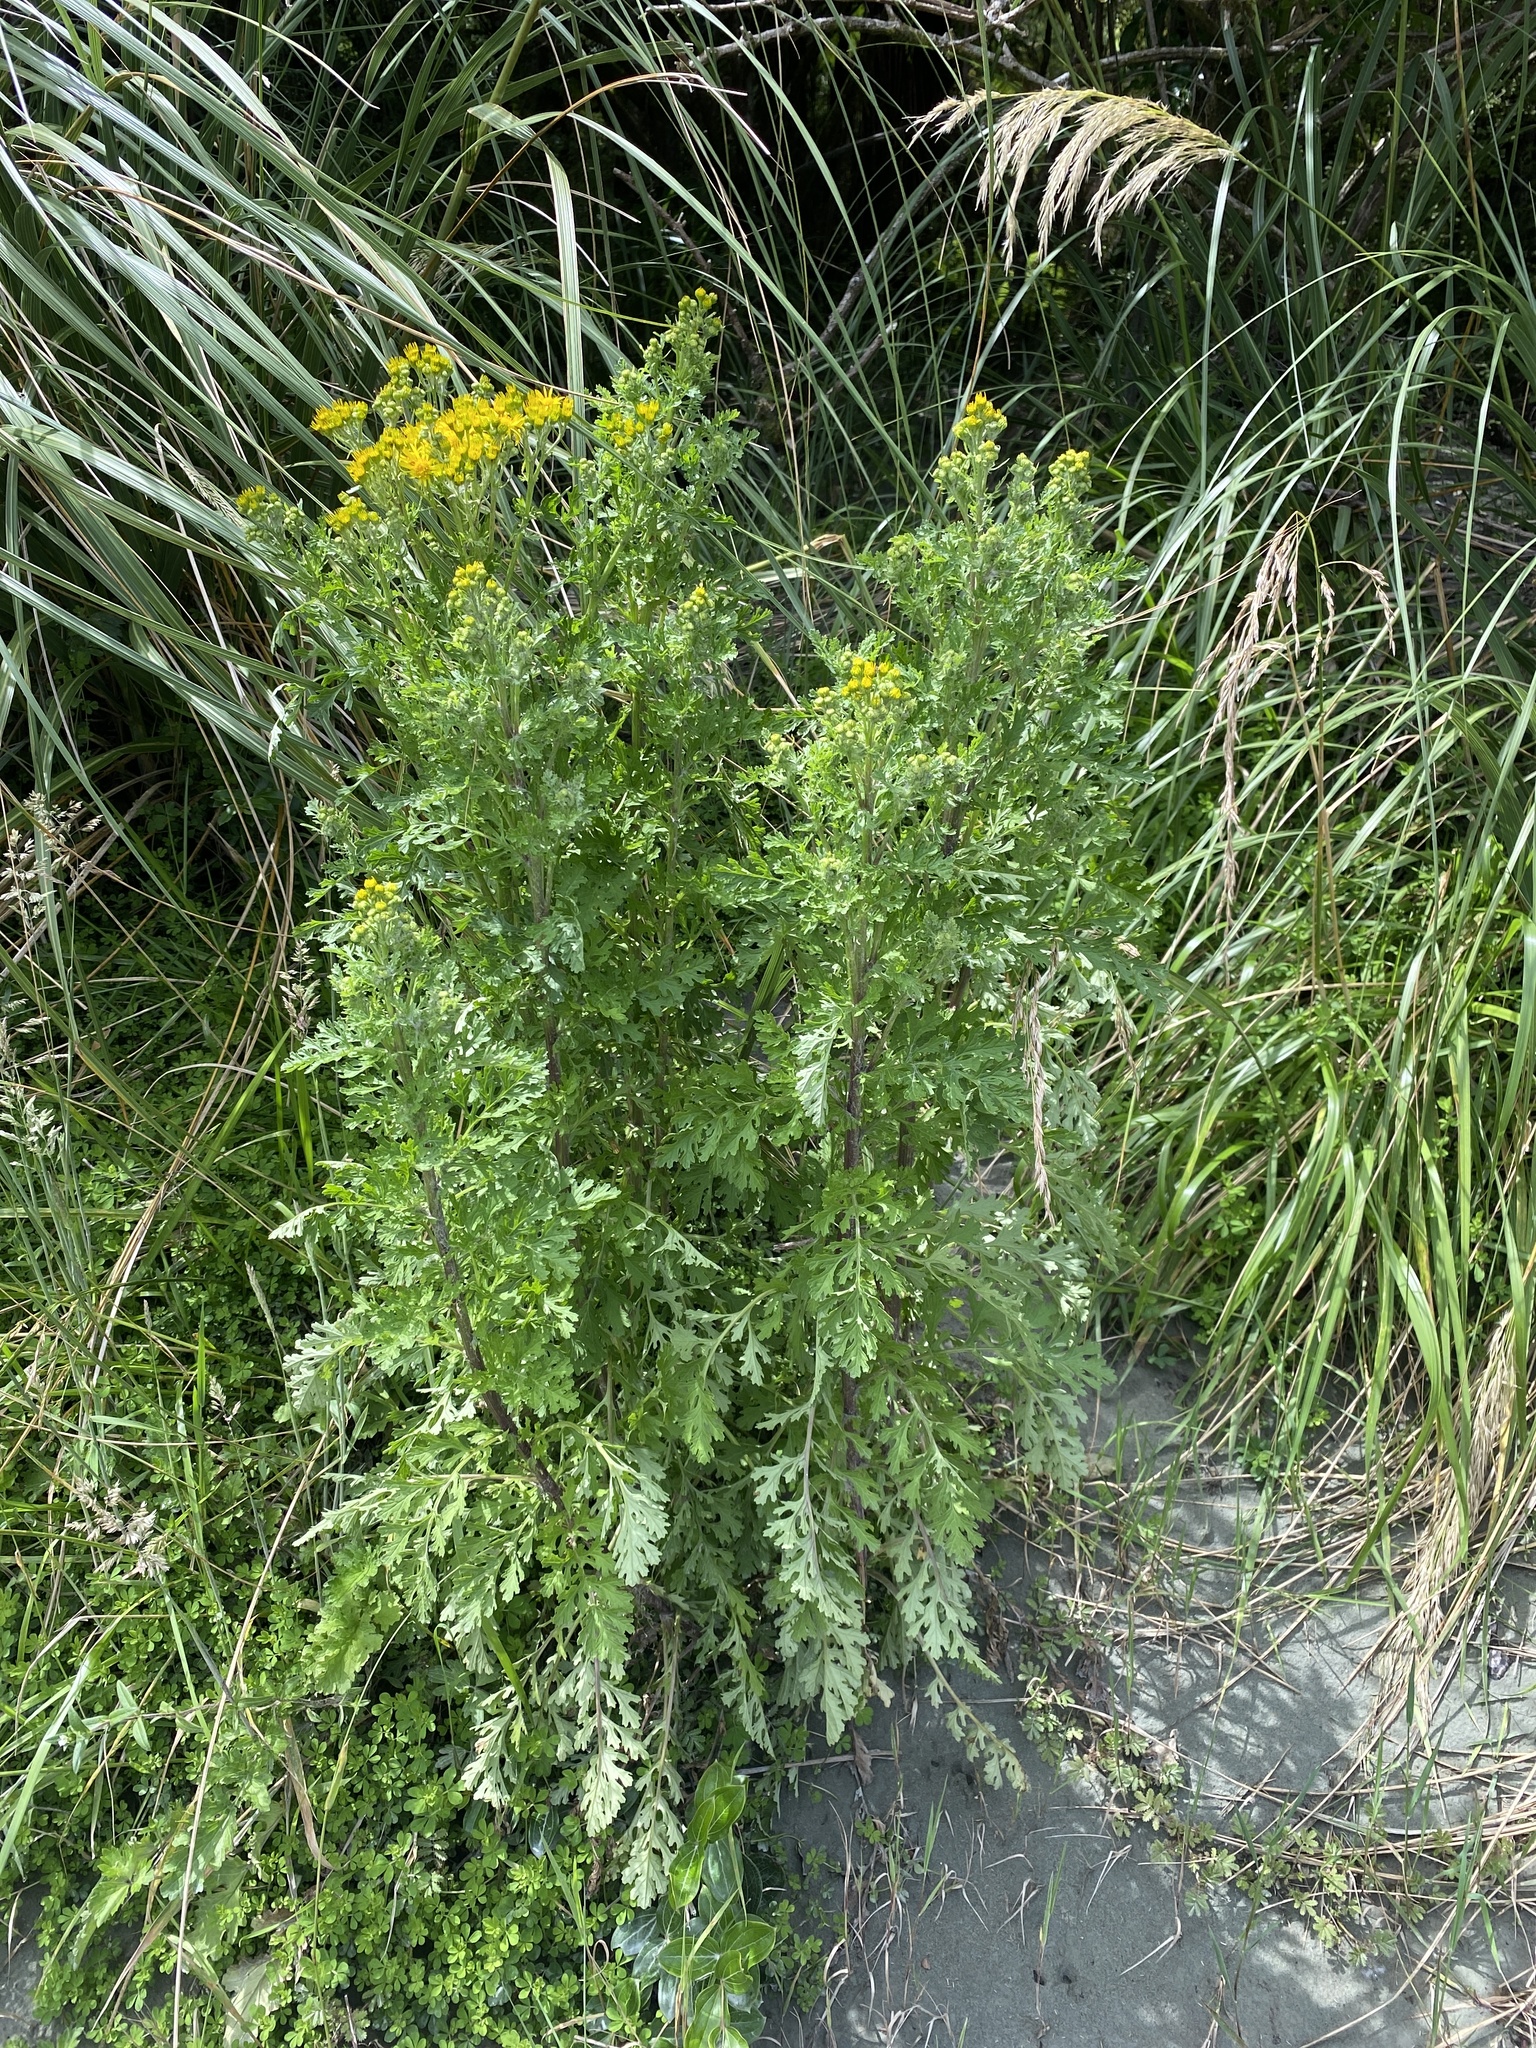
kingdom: Plantae
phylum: Tracheophyta
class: Magnoliopsida
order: Asterales
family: Asteraceae
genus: Jacobaea
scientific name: Jacobaea vulgaris
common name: Stinking willie
